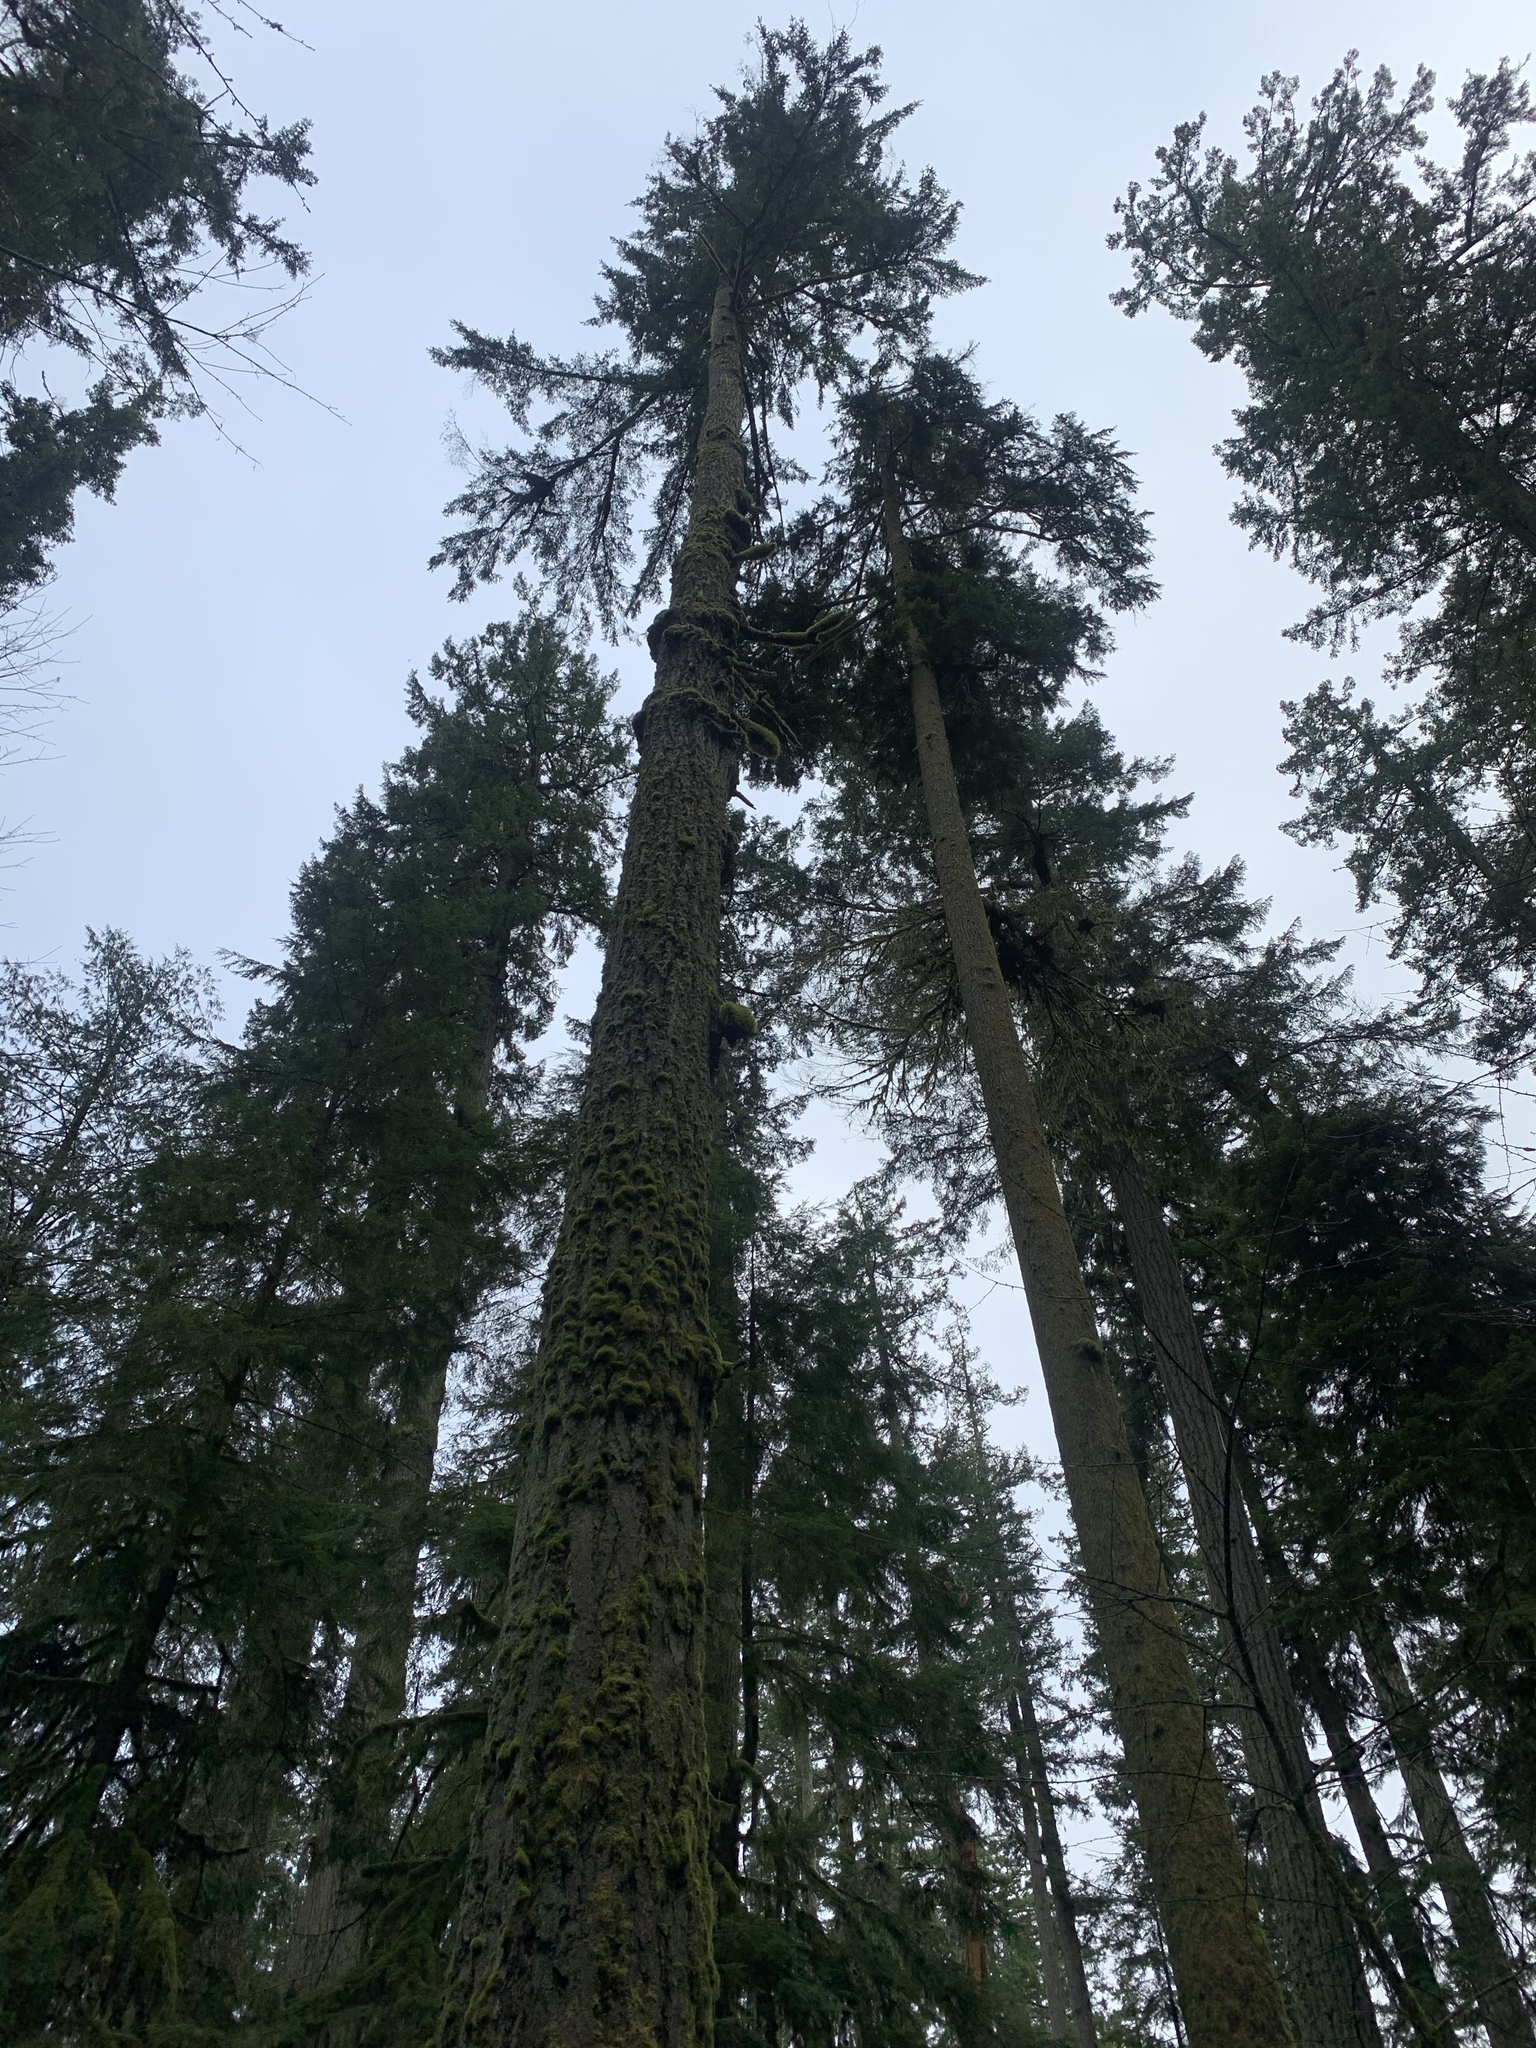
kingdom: Plantae
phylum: Tracheophyta
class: Pinopsida
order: Pinales
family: Pinaceae
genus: Pseudotsuga
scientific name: Pseudotsuga menziesii
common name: Douglas fir
